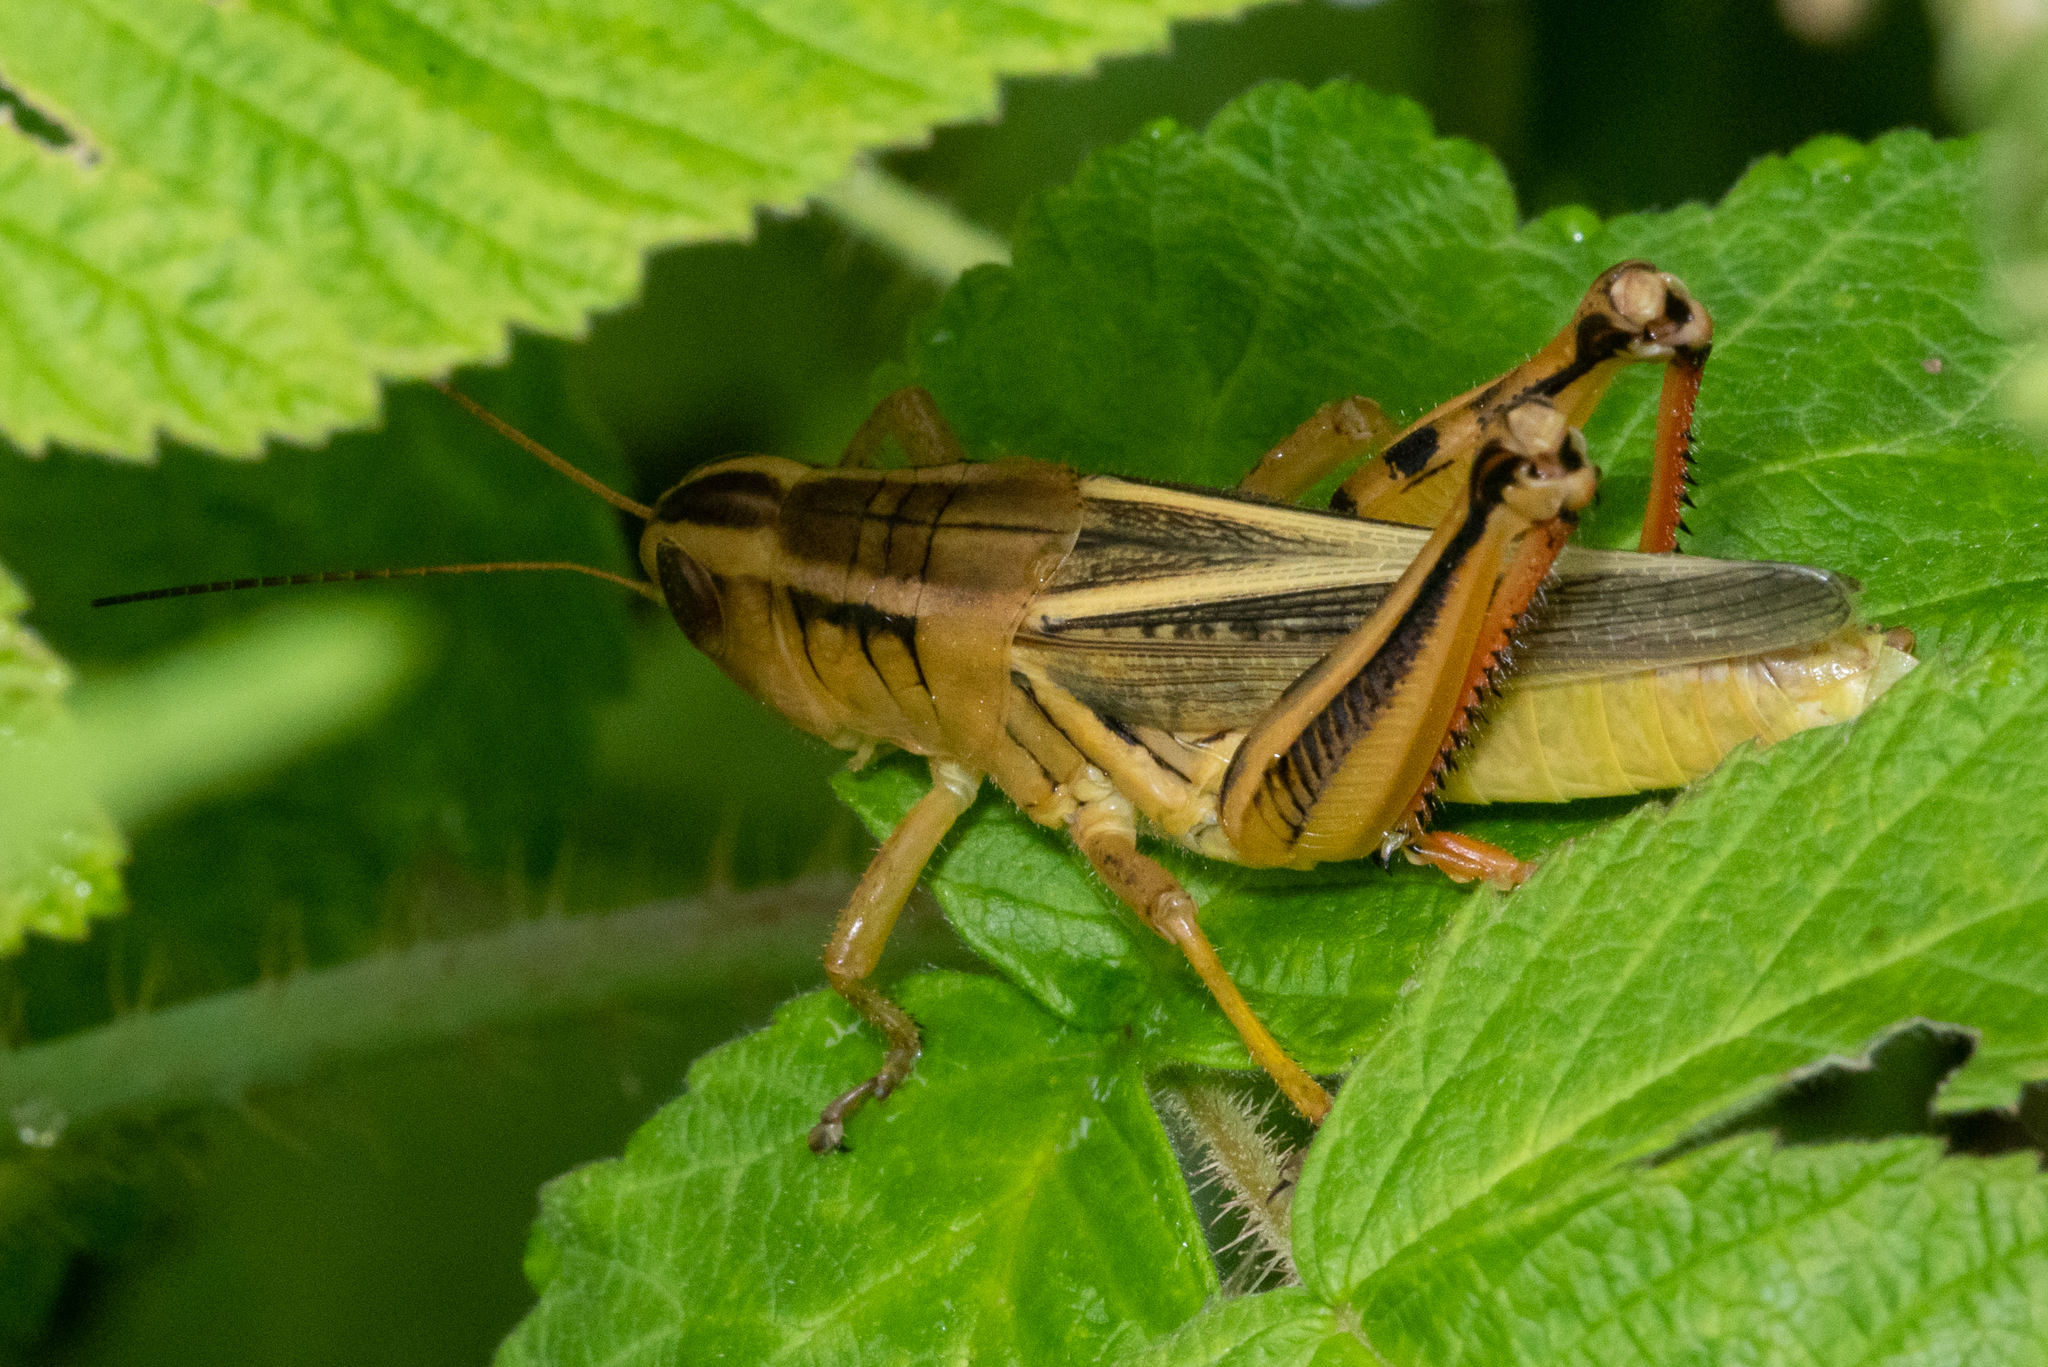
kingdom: Animalia
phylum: Arthropoda
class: Insecta
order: Orthoptera
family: Acrididae
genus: Melanoplus
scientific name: Melanoplus bivittatus
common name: Two-striped grasshopper
